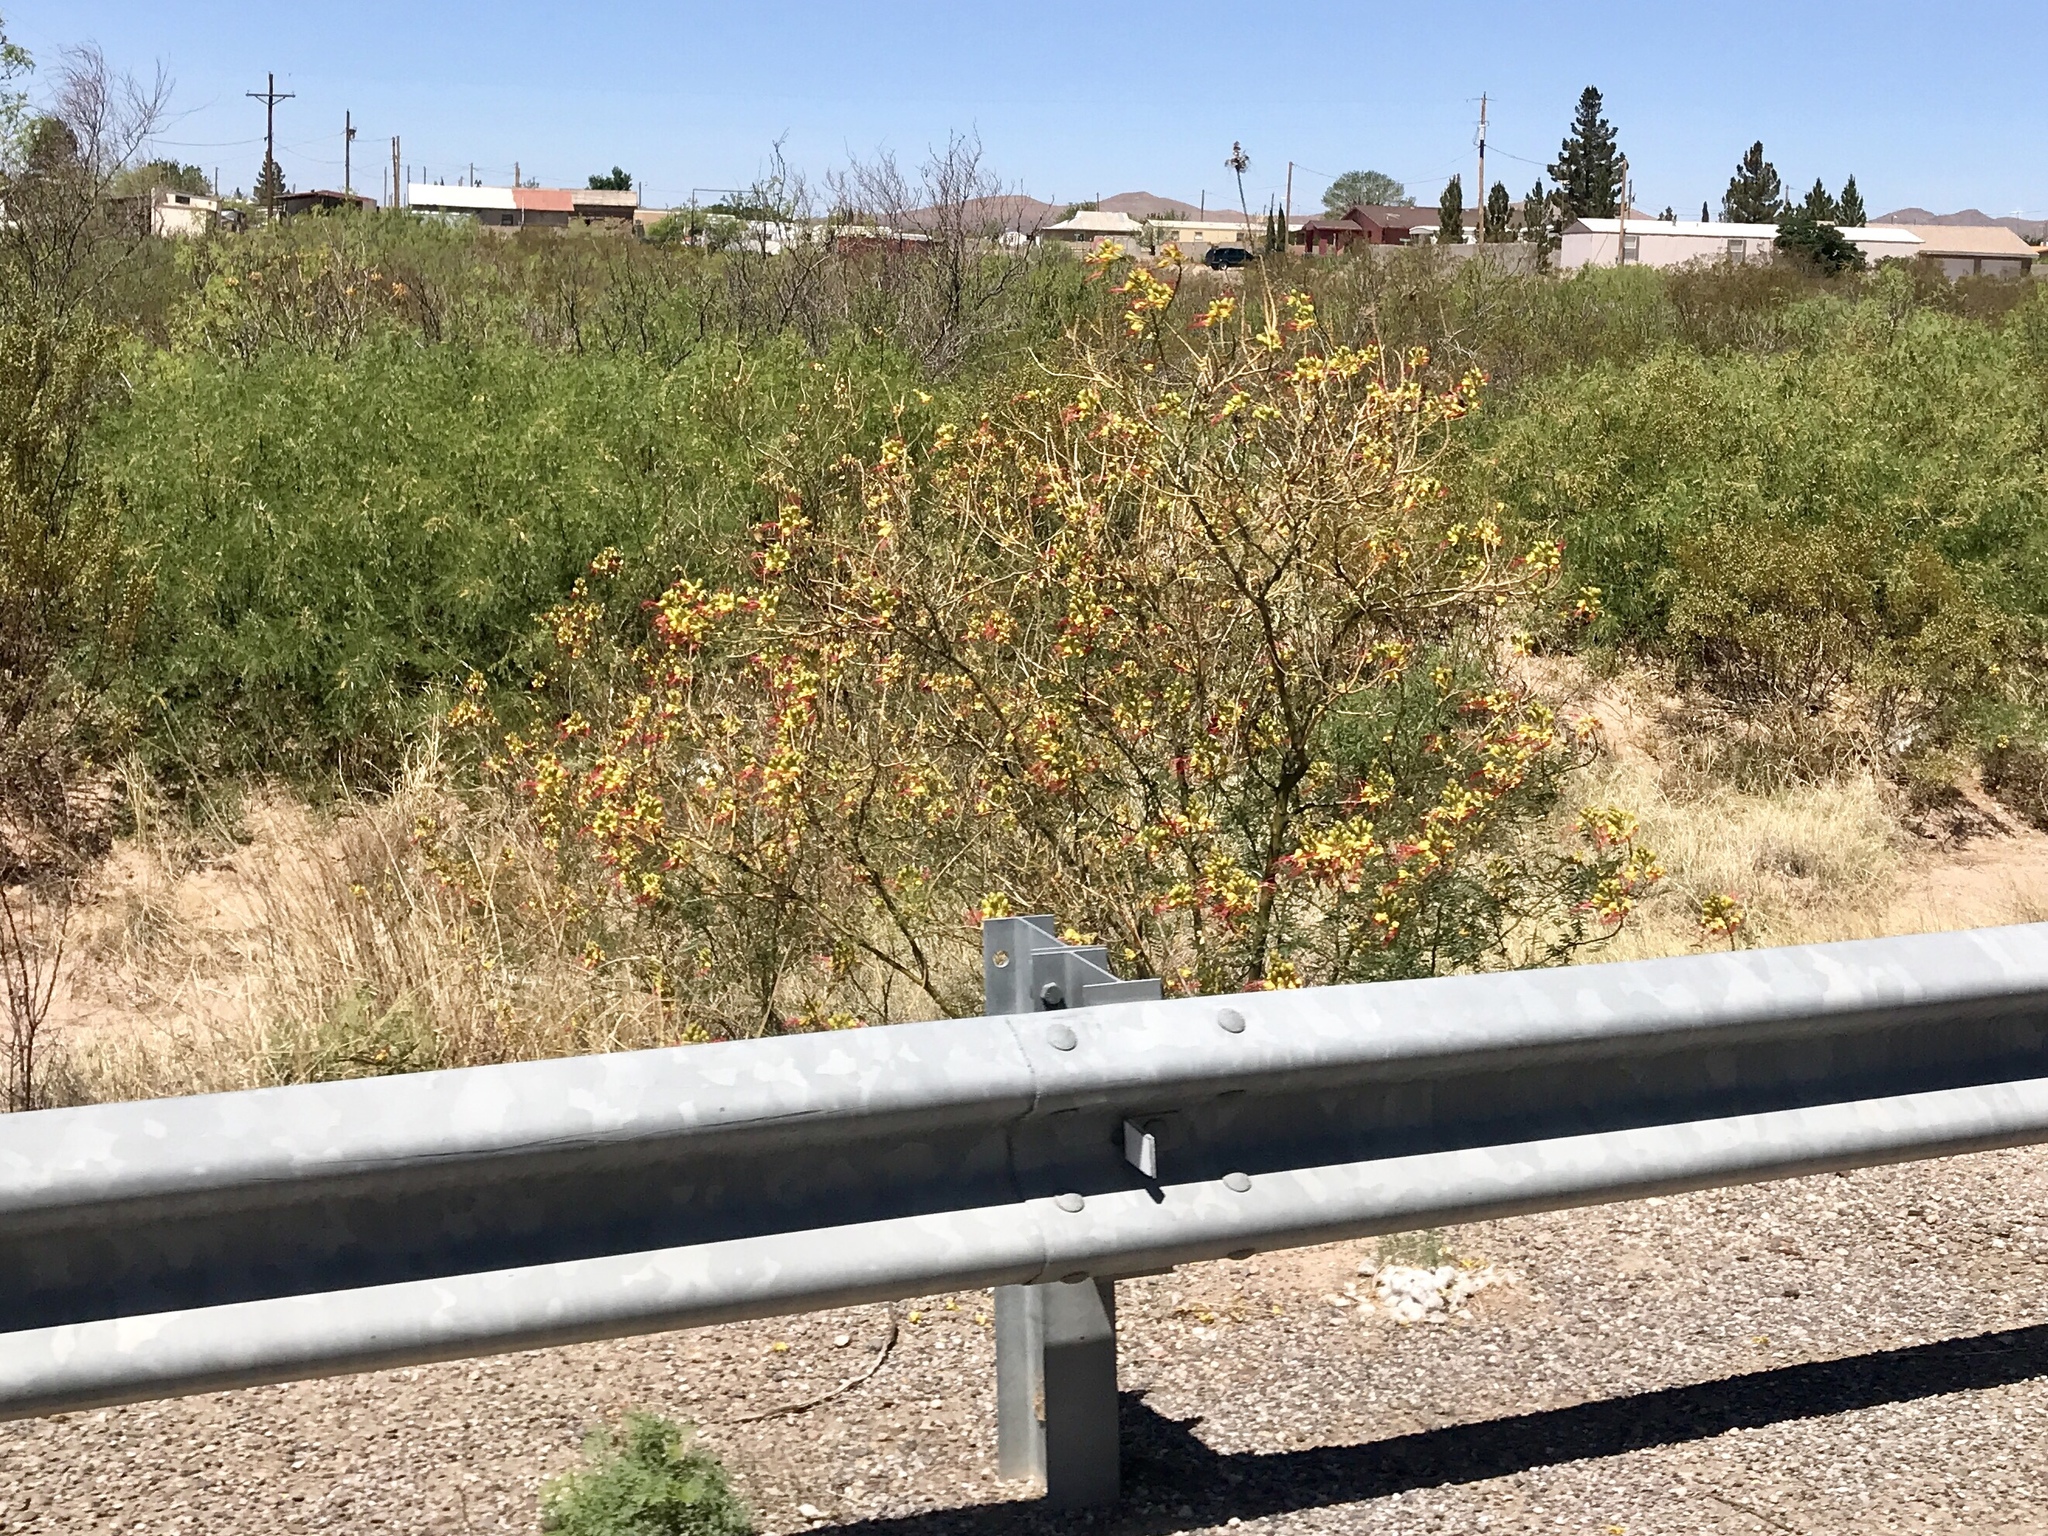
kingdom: Plantae
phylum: Tracheophyta
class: Magnoliopsida
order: Fabales
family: Fabaceae
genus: Erythrostemon
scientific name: Erythrostemon gilliesii
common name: Bird-of-paradise shrub
